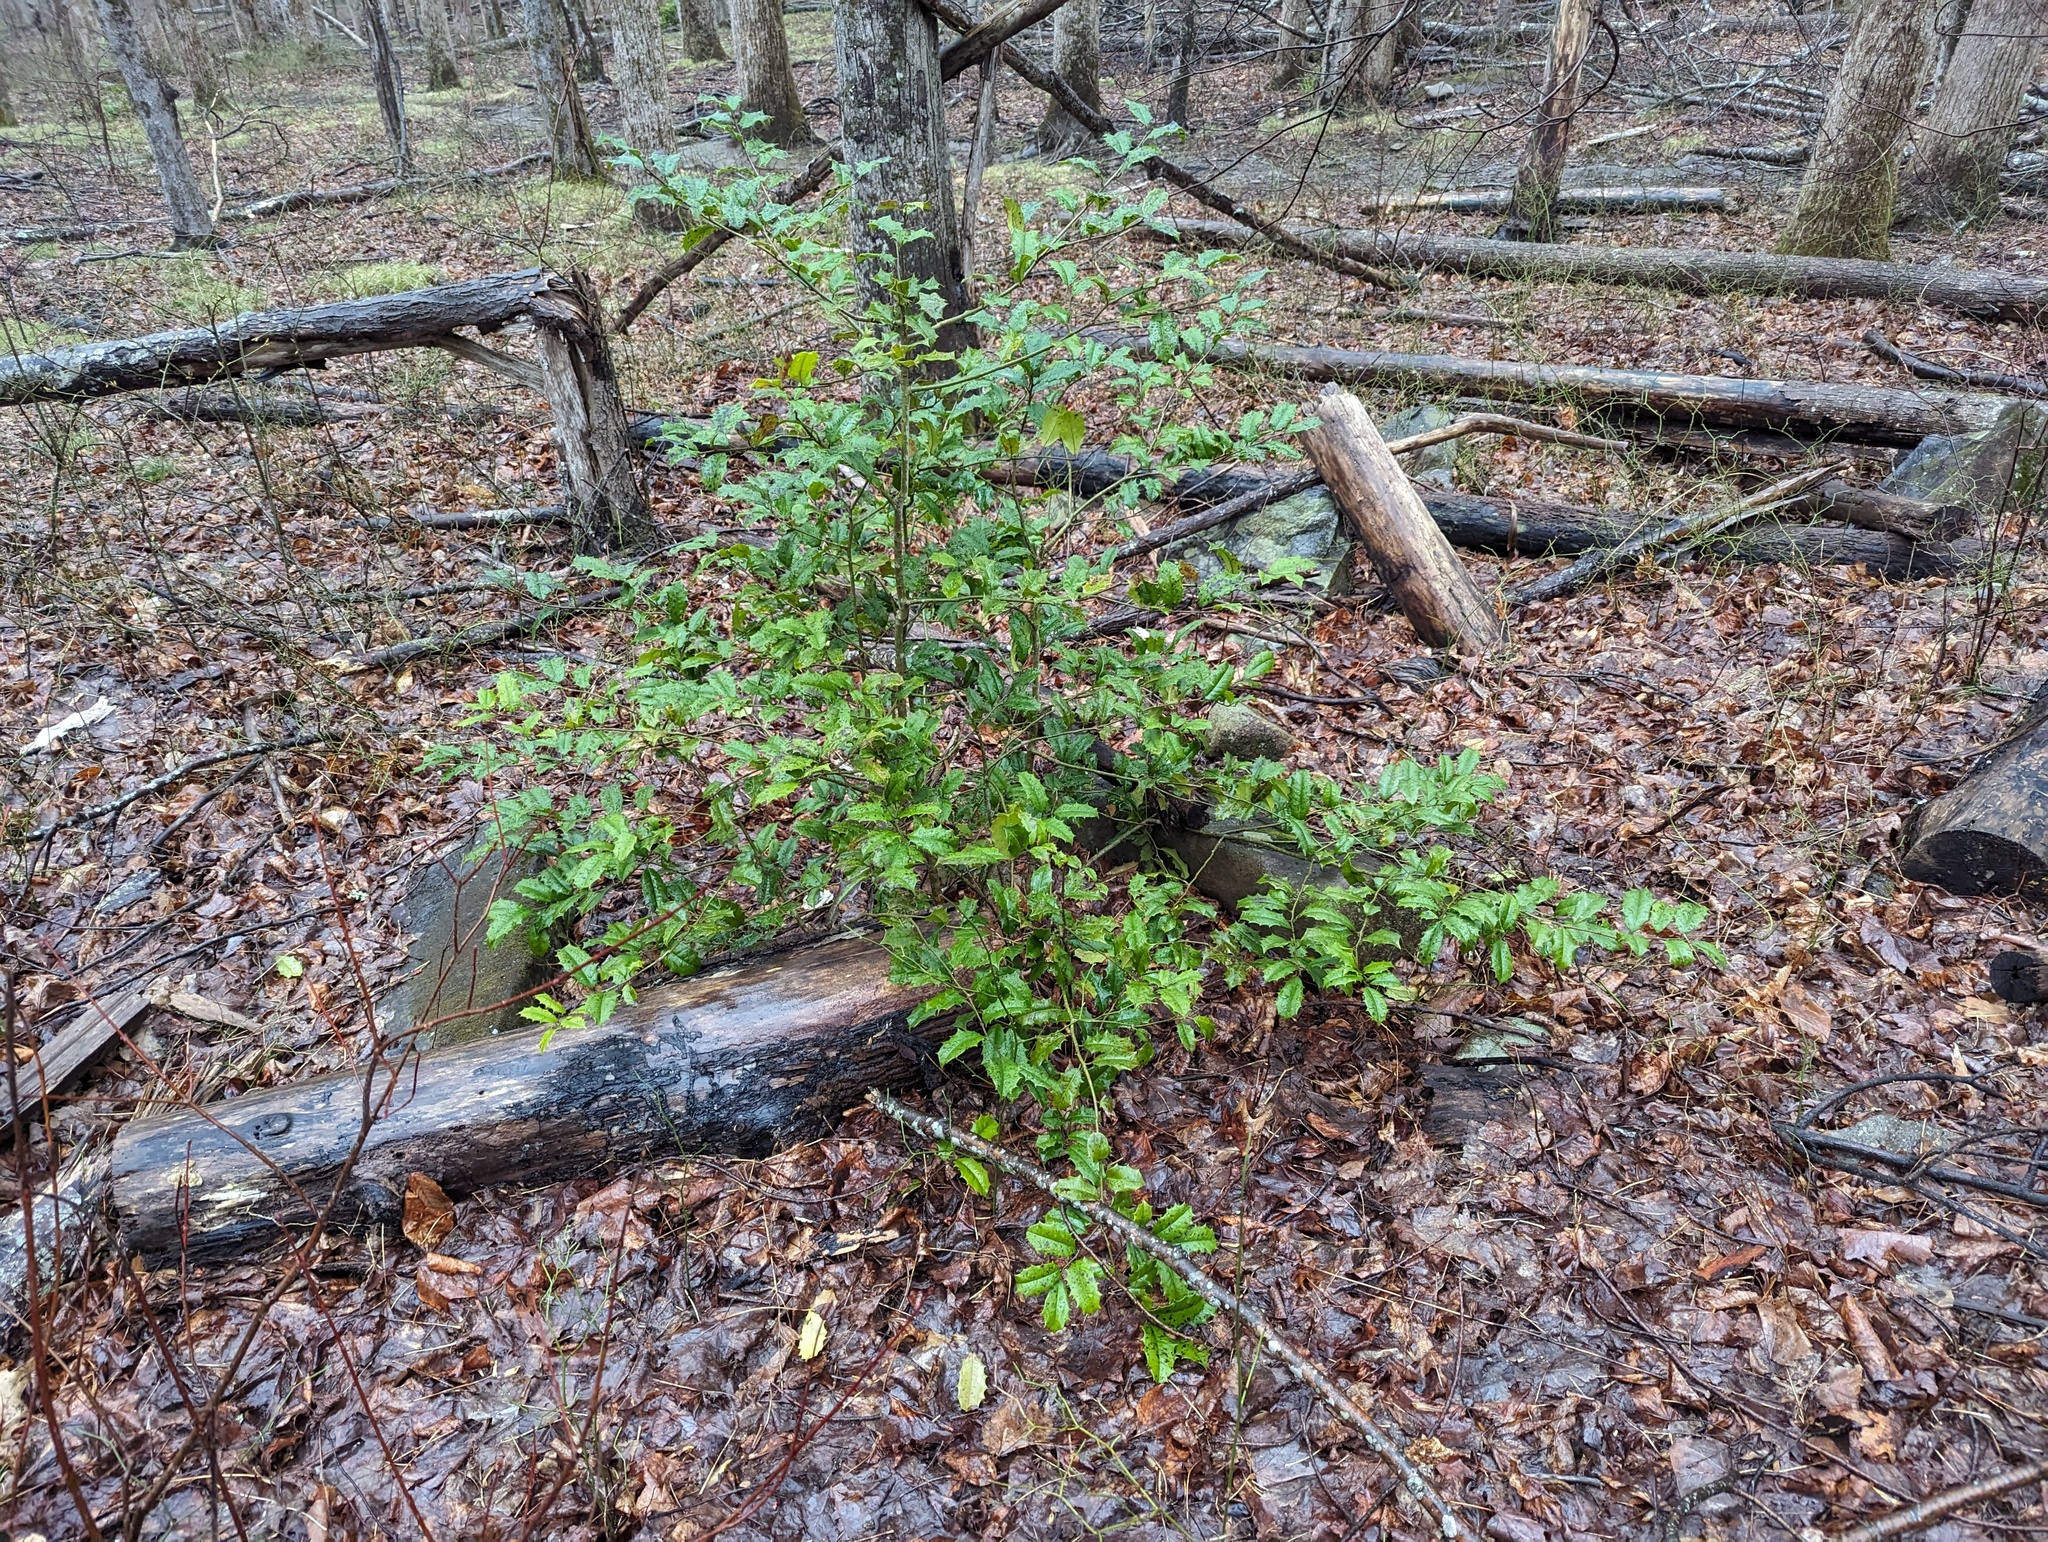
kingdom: Plantae
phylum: Tracheophyta
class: Magnoliopsida
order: Aquifoliales
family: Aquifoliaceae
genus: Ilex
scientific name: Ilex opaca
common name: American holly
